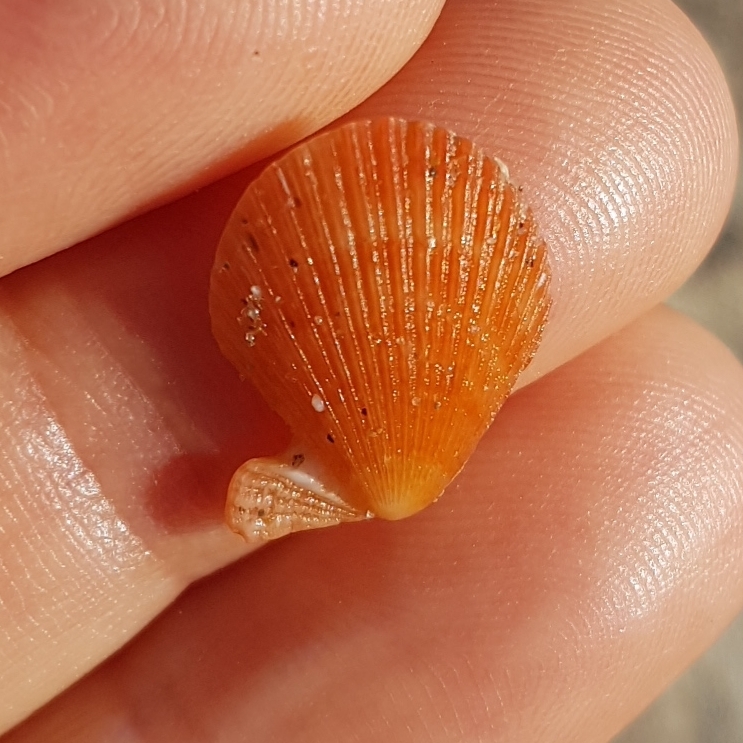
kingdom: Animalia
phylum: Mollusca
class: Bivalvia
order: Pectinida
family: Pectinidae
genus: Talochlamys
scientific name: Talochlamys multistriata
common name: Tinted scallop
